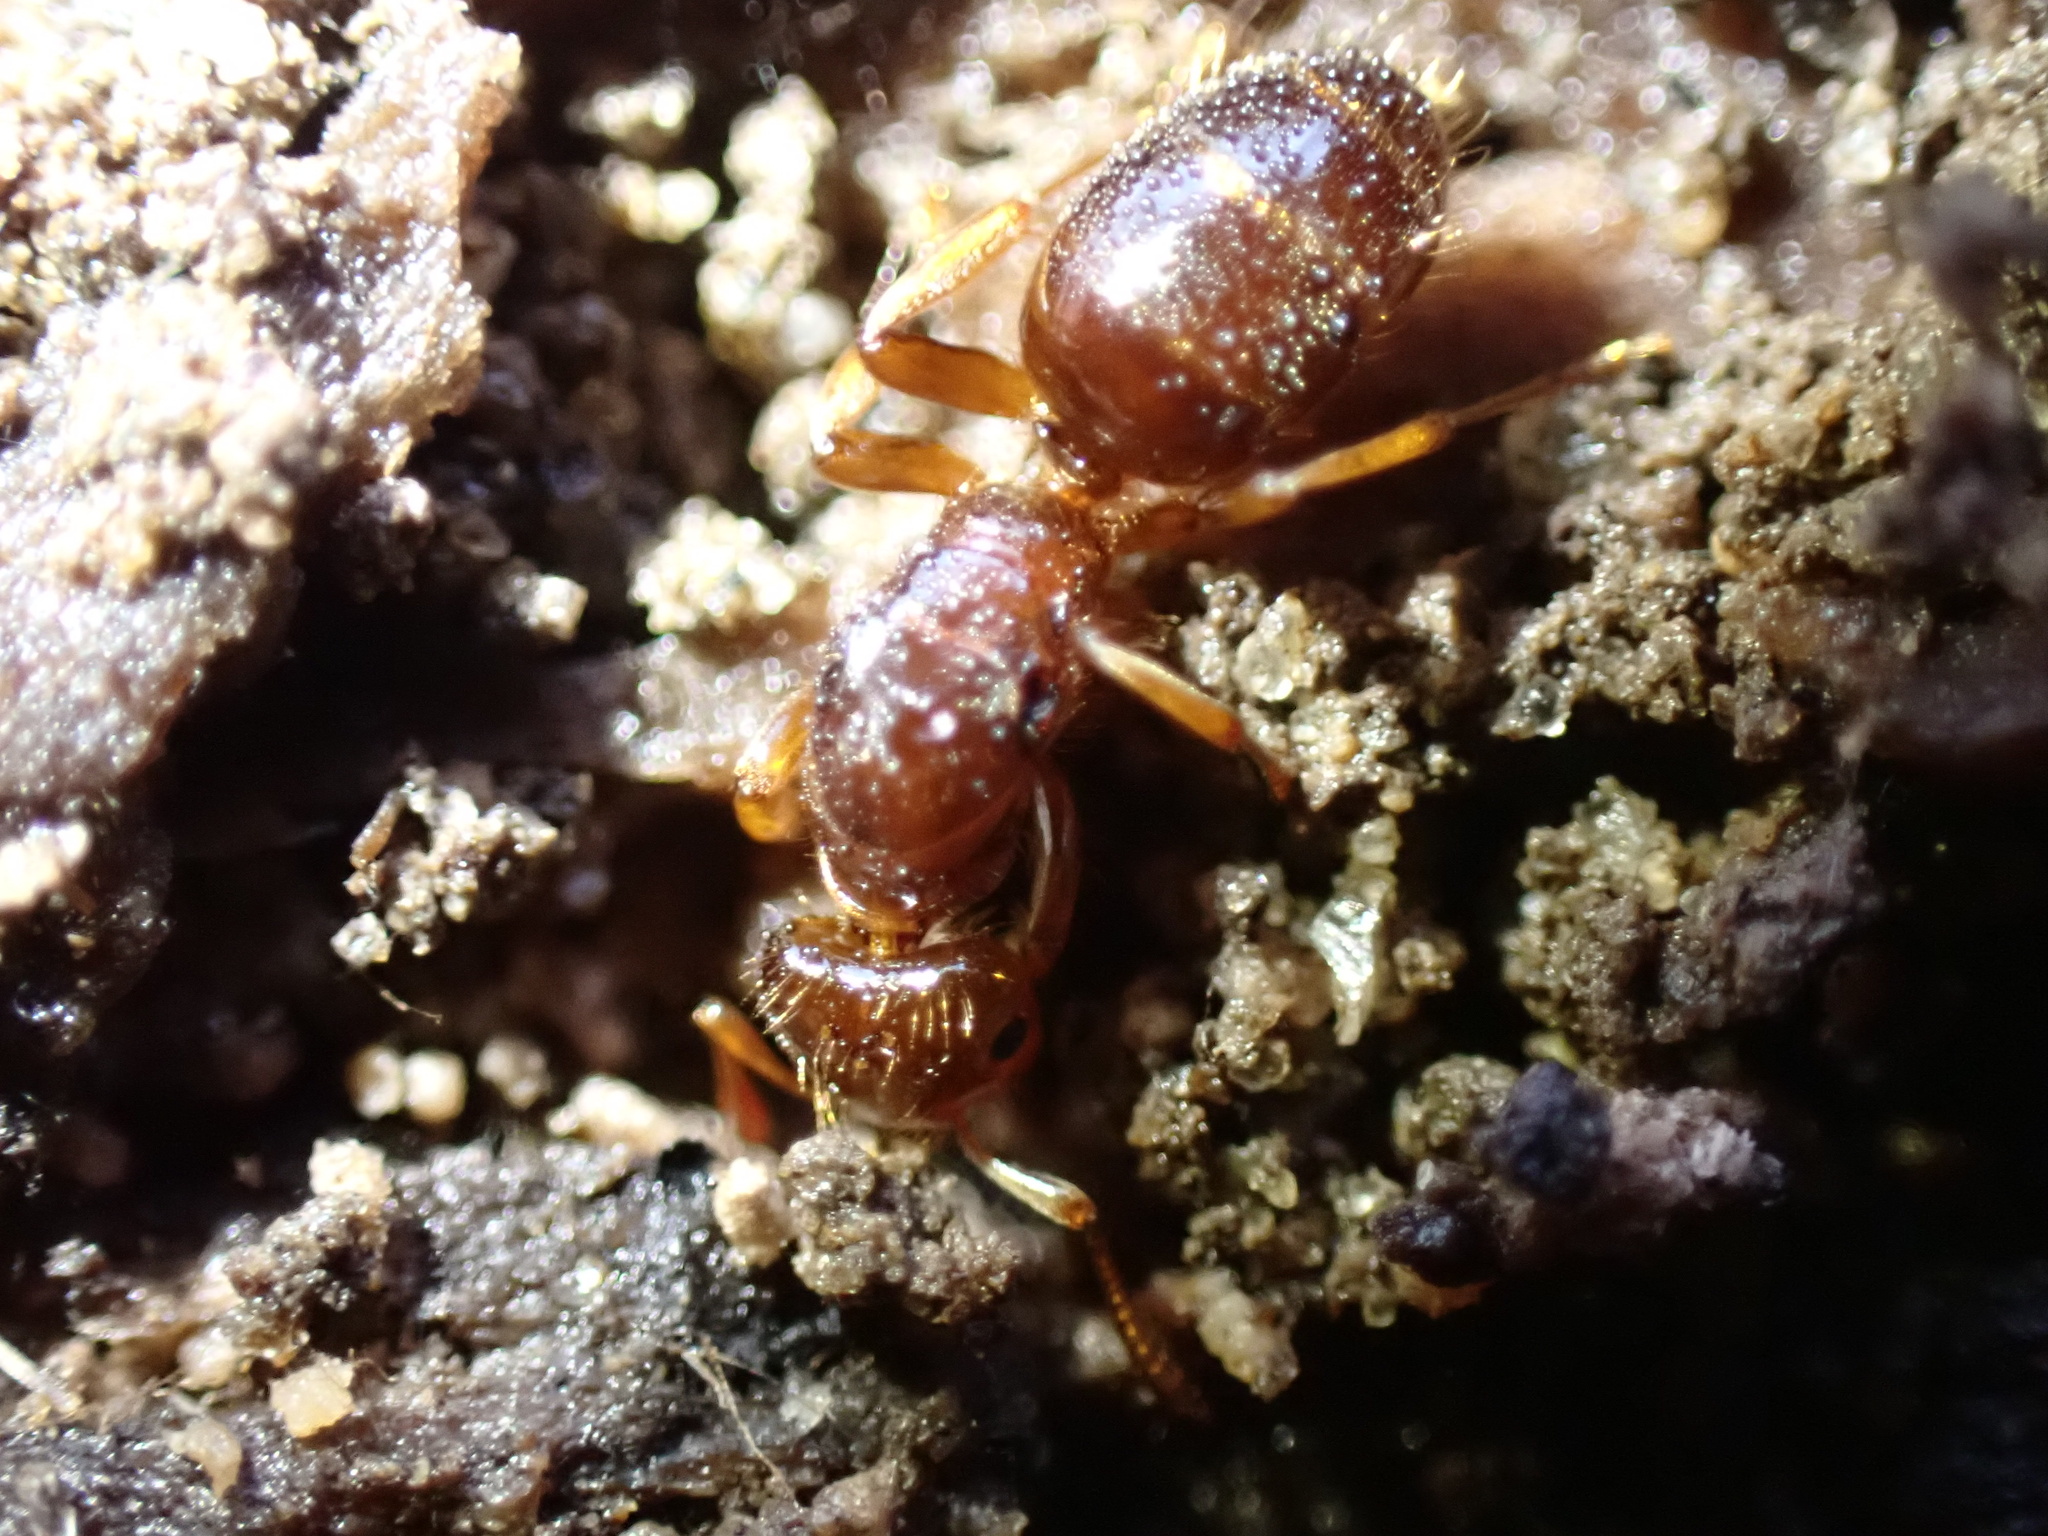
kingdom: Animalia
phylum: Arthropoda
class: Insecta
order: Hymenoptera
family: Formicidae
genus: Lasius
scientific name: Lasius claviger
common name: Common citronella ant
